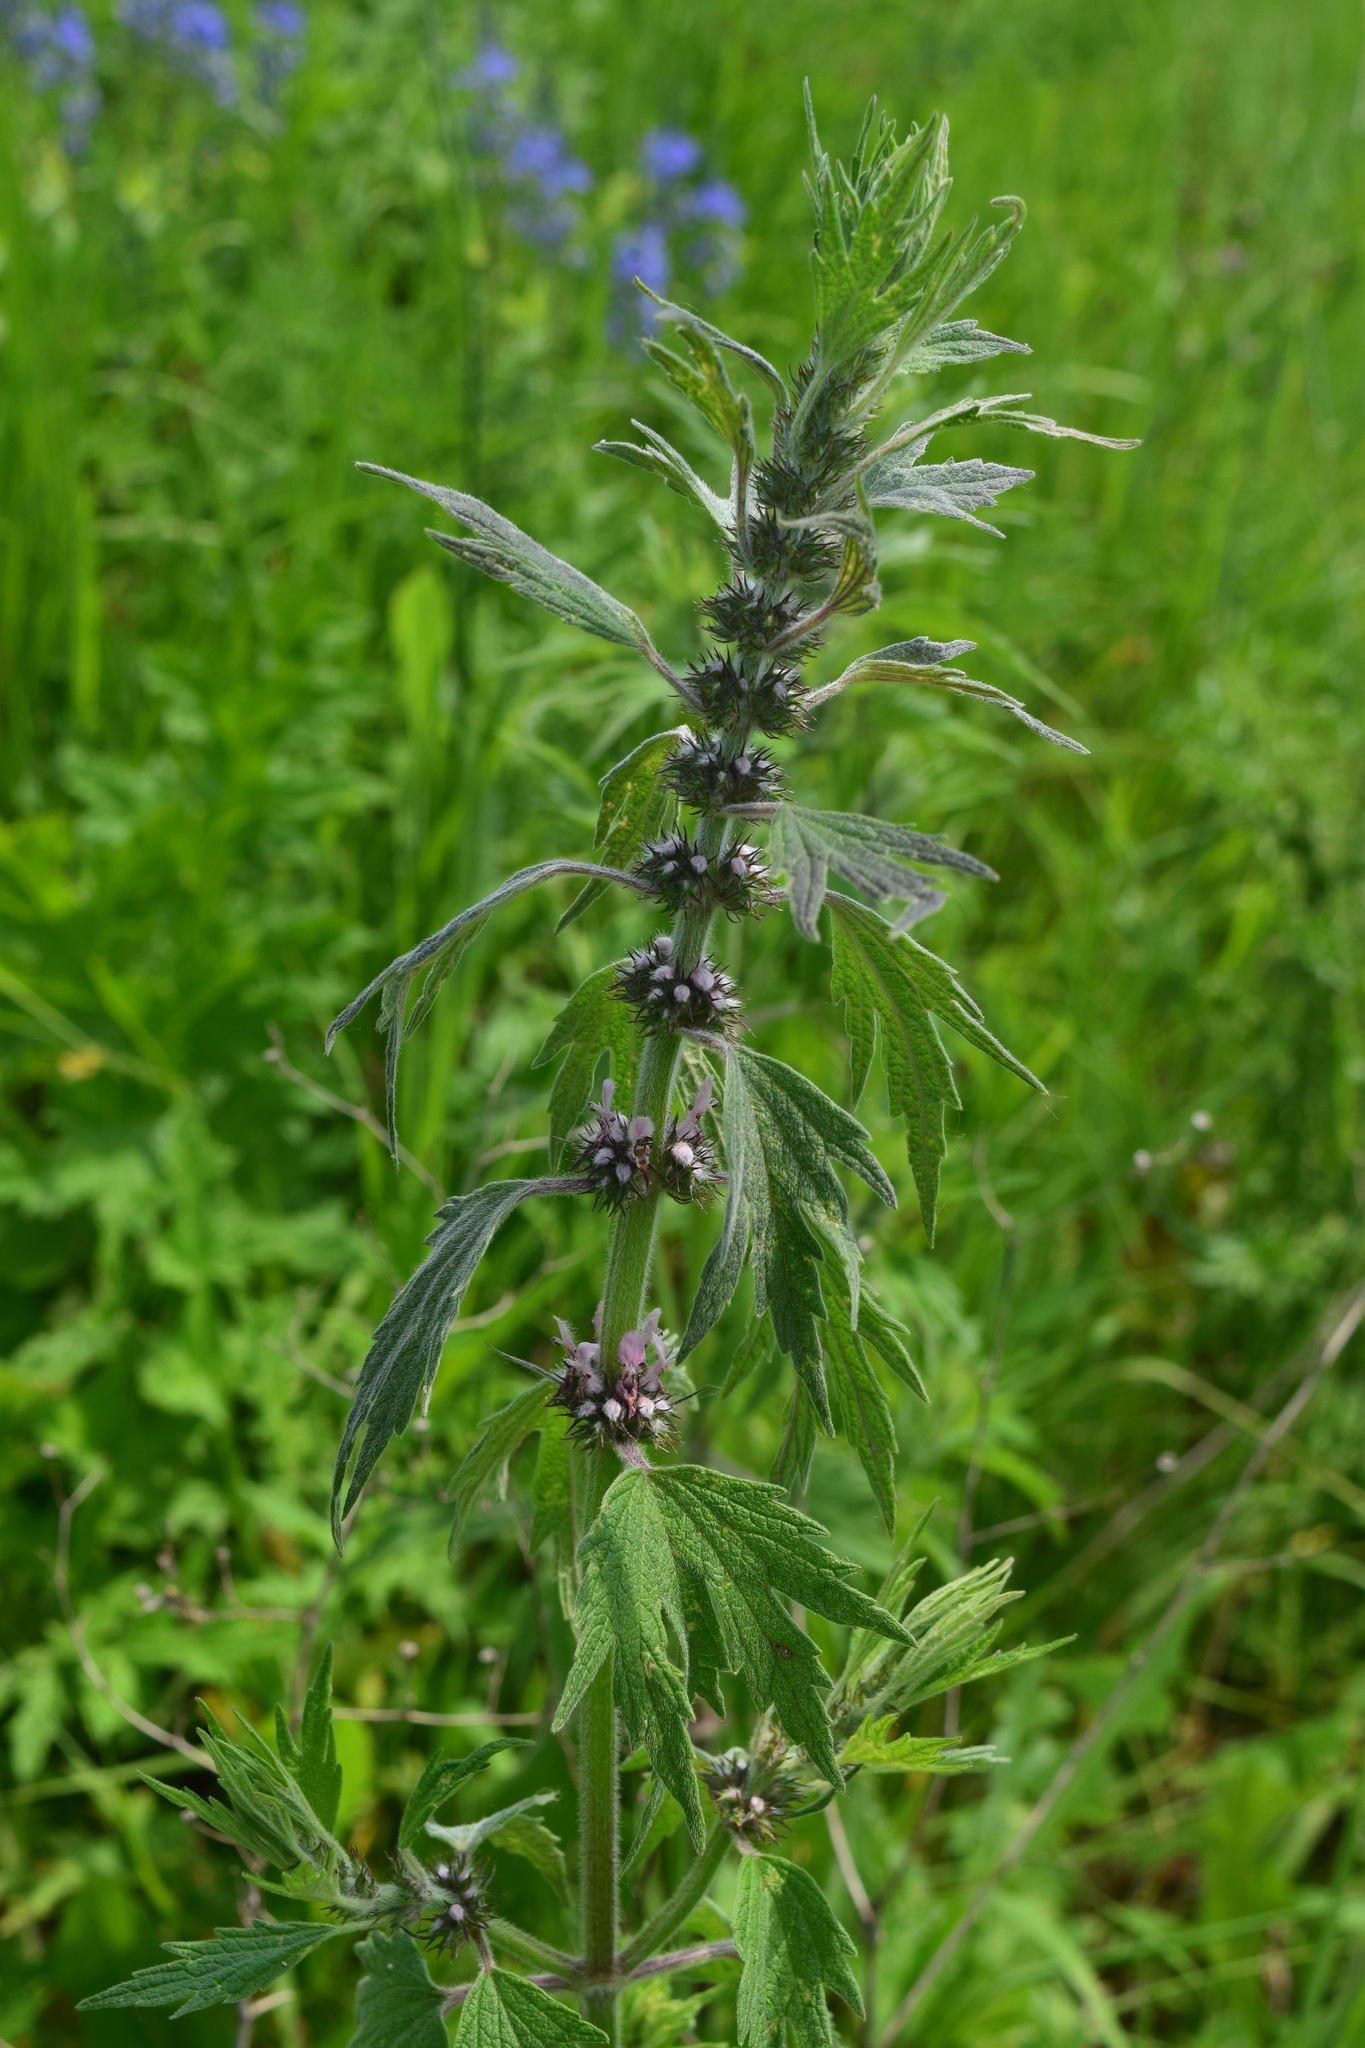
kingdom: Plantae
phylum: Tracheophyta
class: Magnoliopsida
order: Lamiales
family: Lamiaceae
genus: Leonurus
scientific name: Leonurus quinquelobatus
